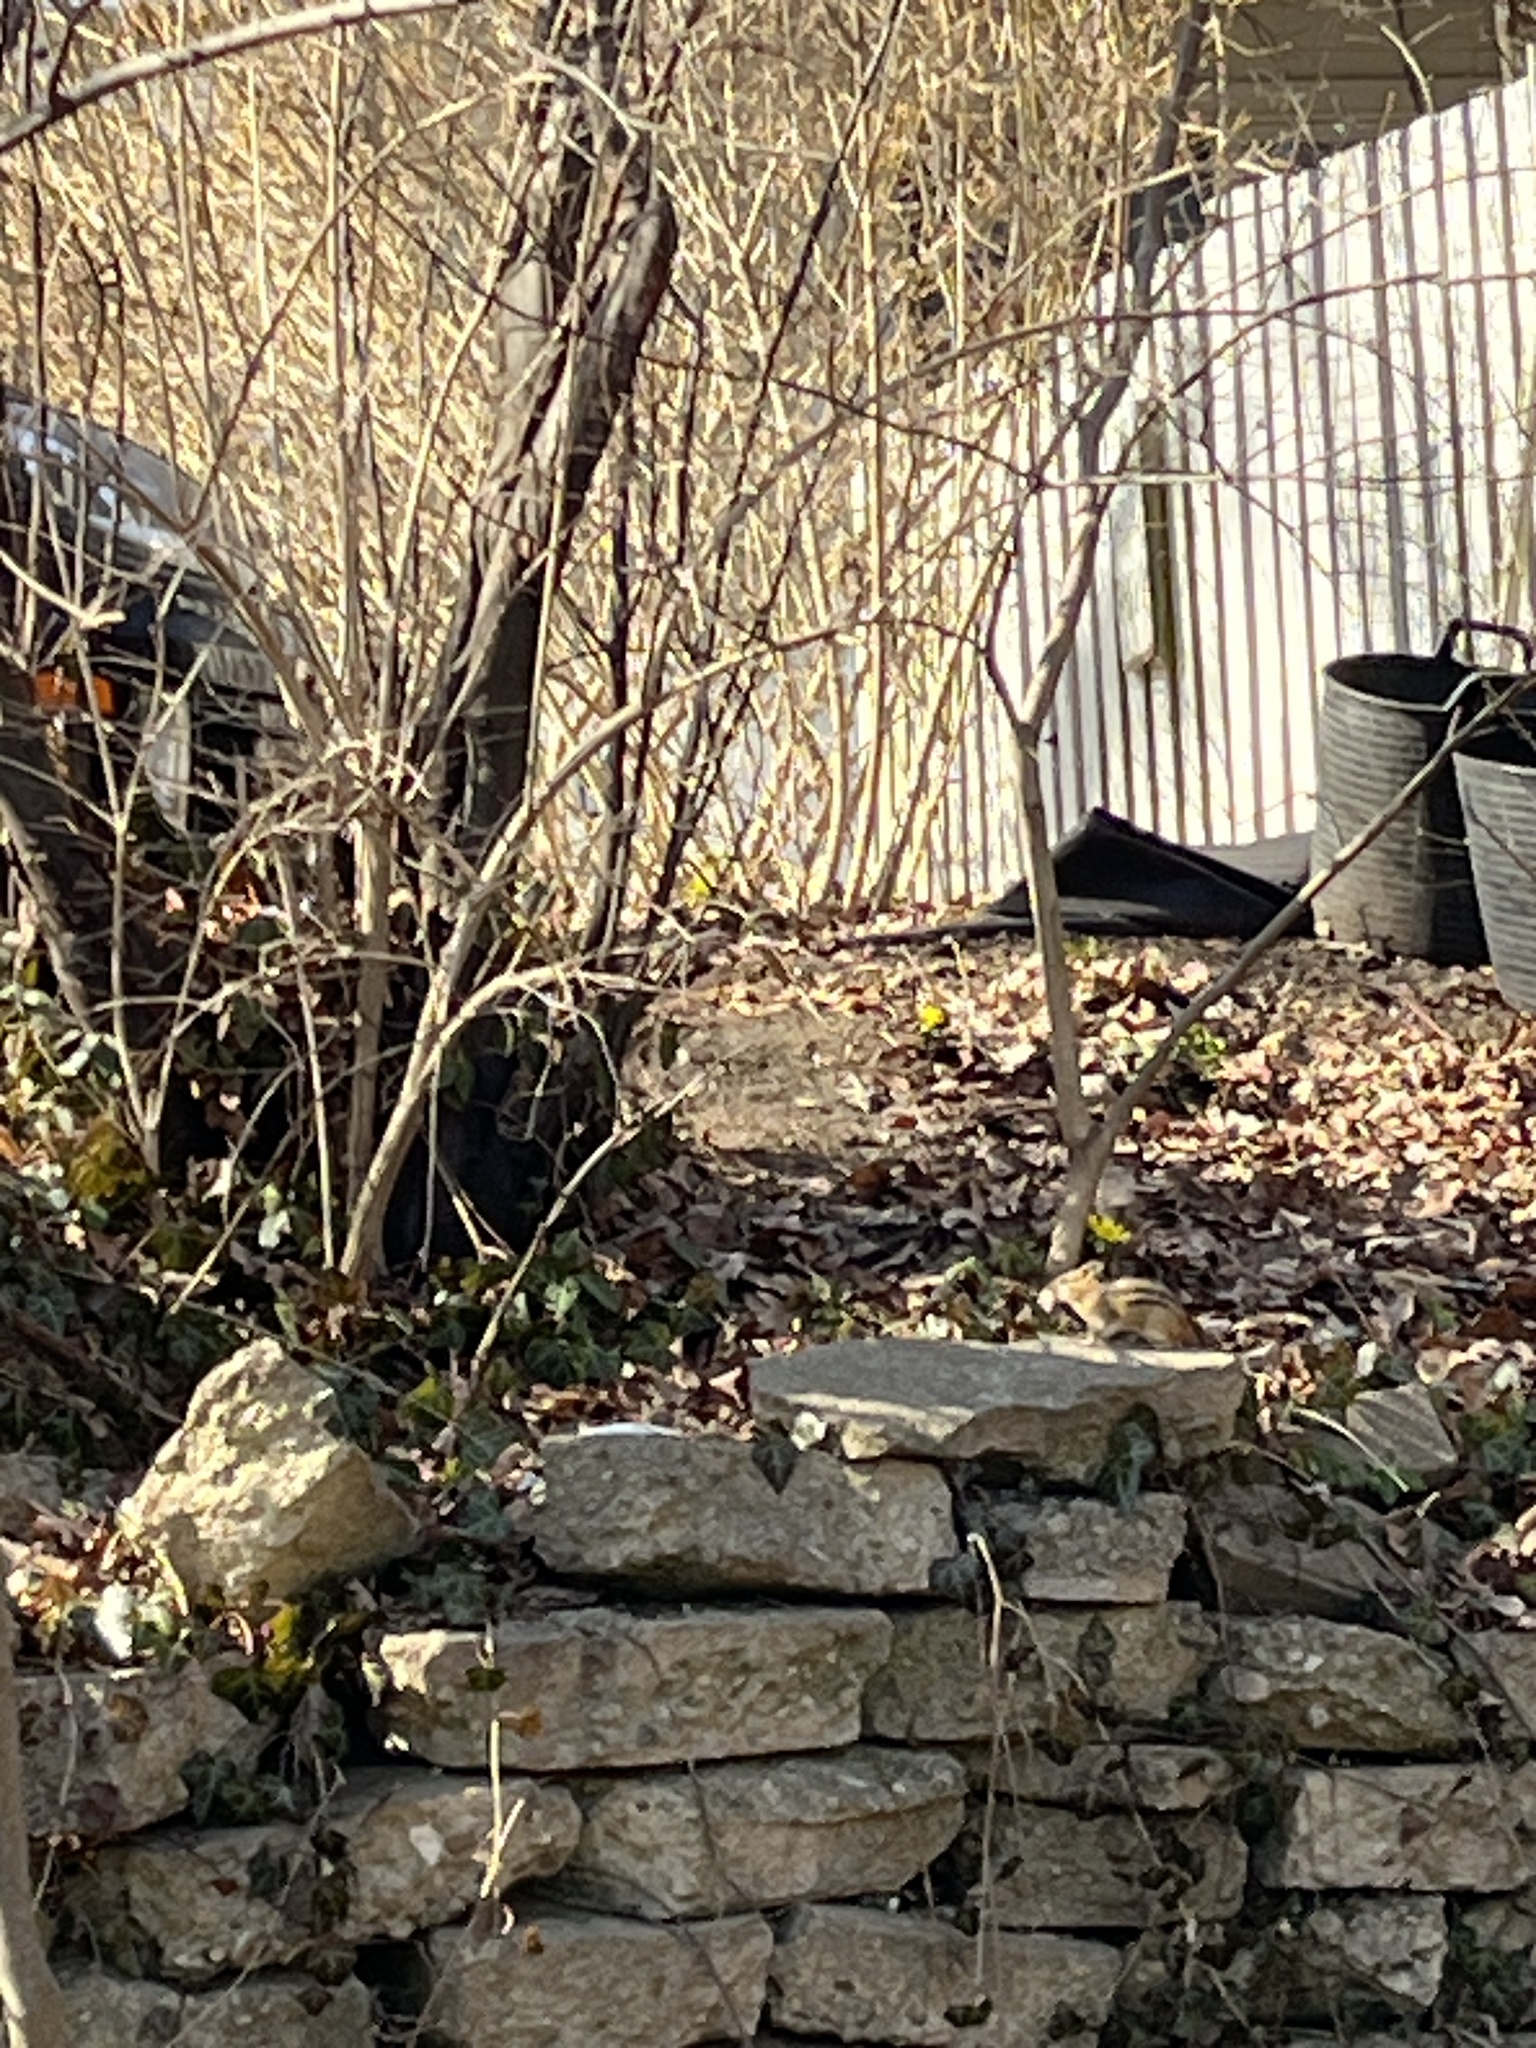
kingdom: Animalia
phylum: Chordata
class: Mammalia
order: Rodentia
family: Sciuridae
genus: Tamias
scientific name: Tamias striatus
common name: Eastern chipmunk
